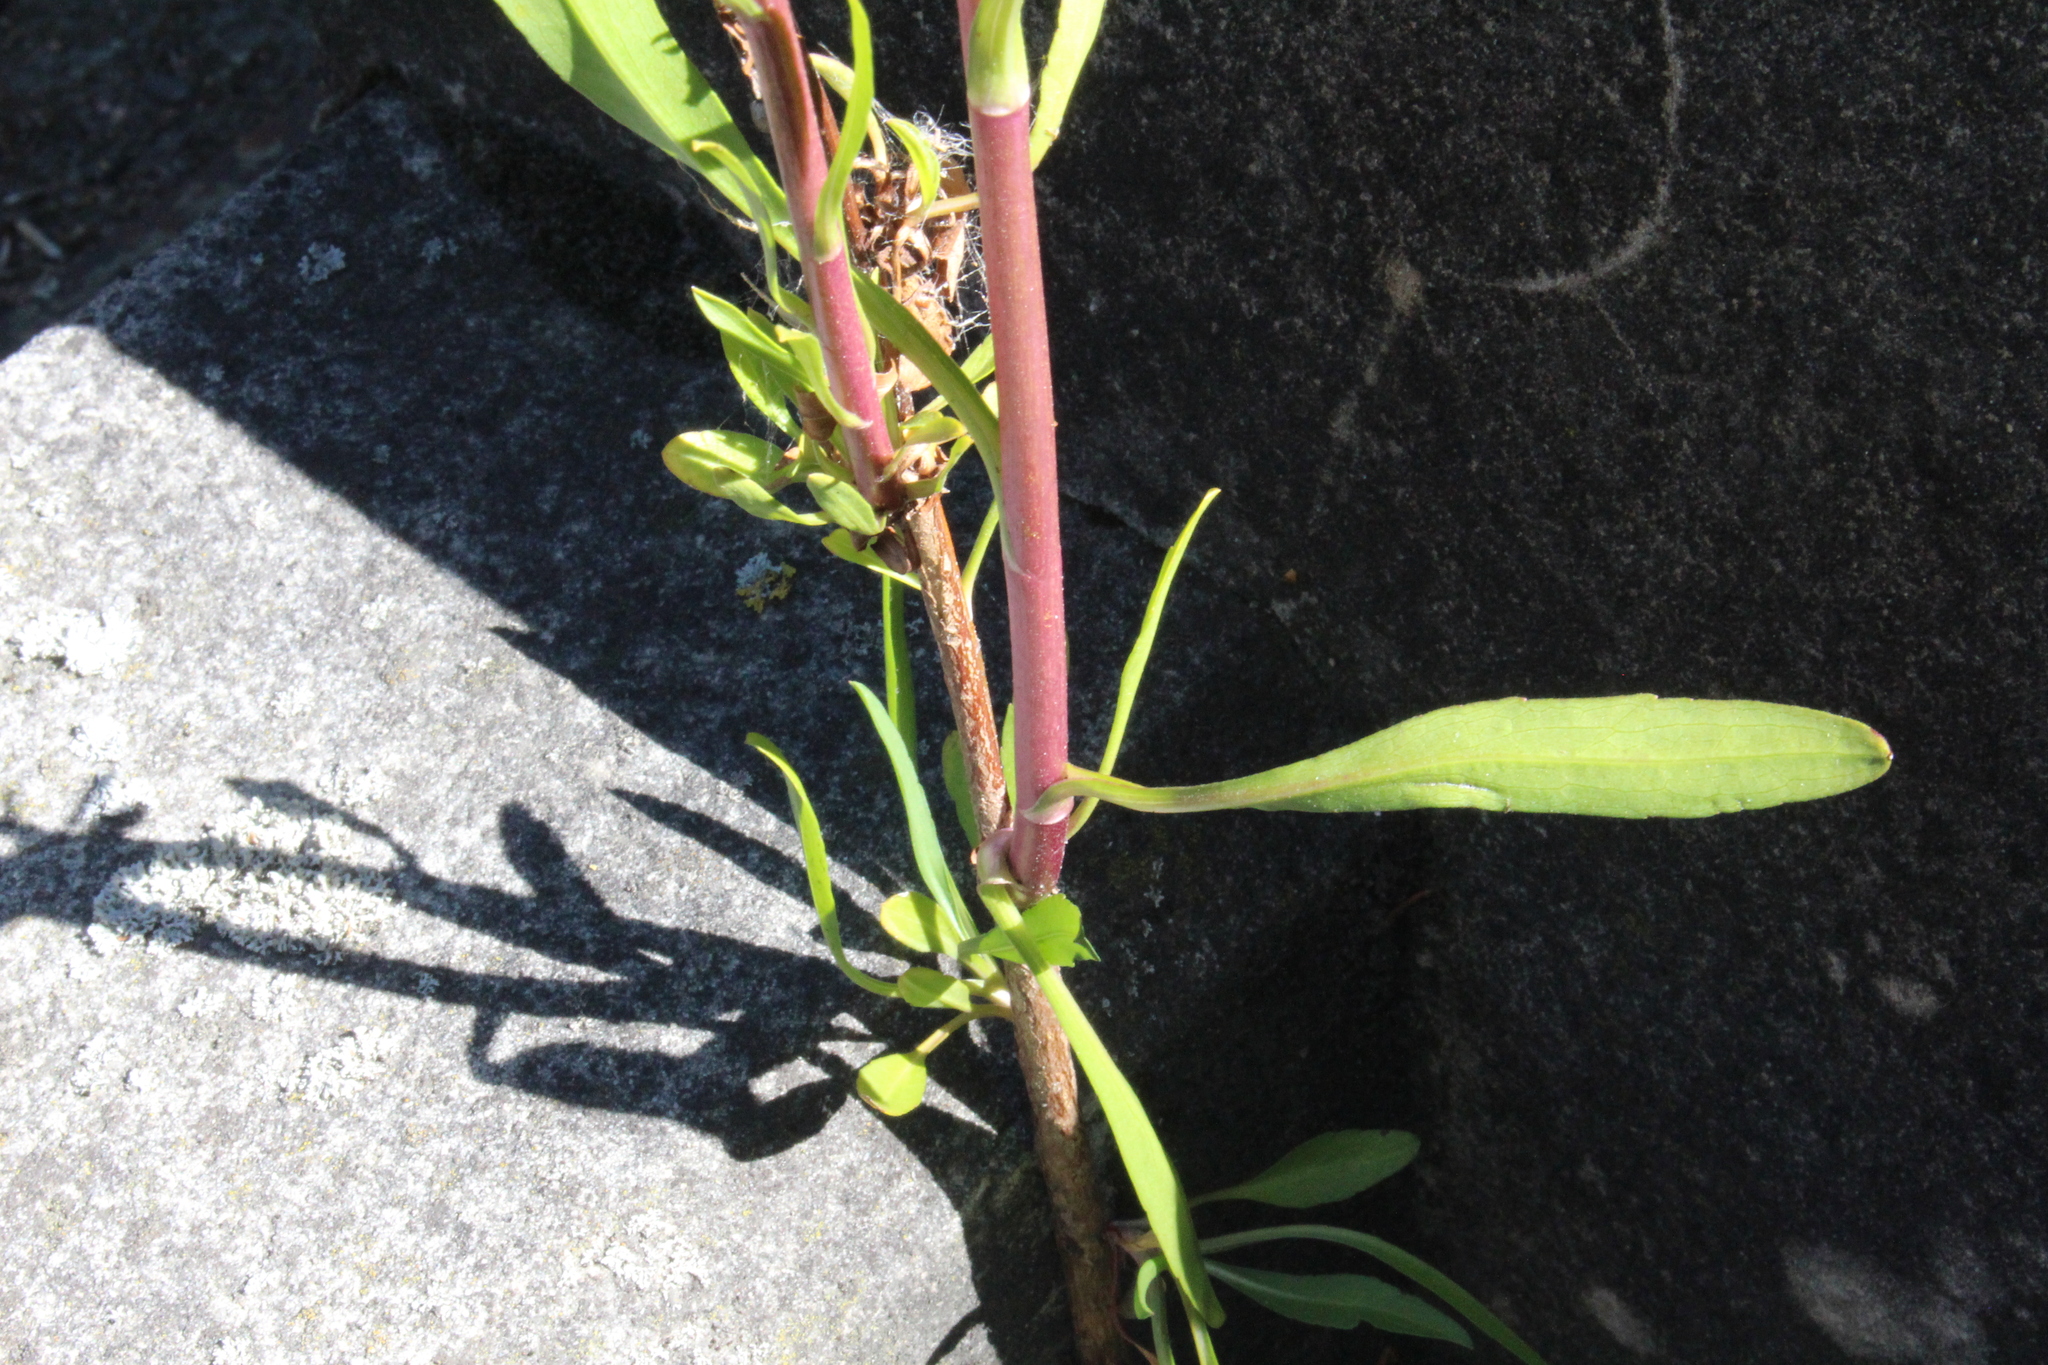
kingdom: Plantae
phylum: Tracheophyta
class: Magnoliopsida
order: Asterales
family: Asteraceae
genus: Symphyotrichum
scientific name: Symphyotrichum subulatum
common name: Annual saltmarsh aster
